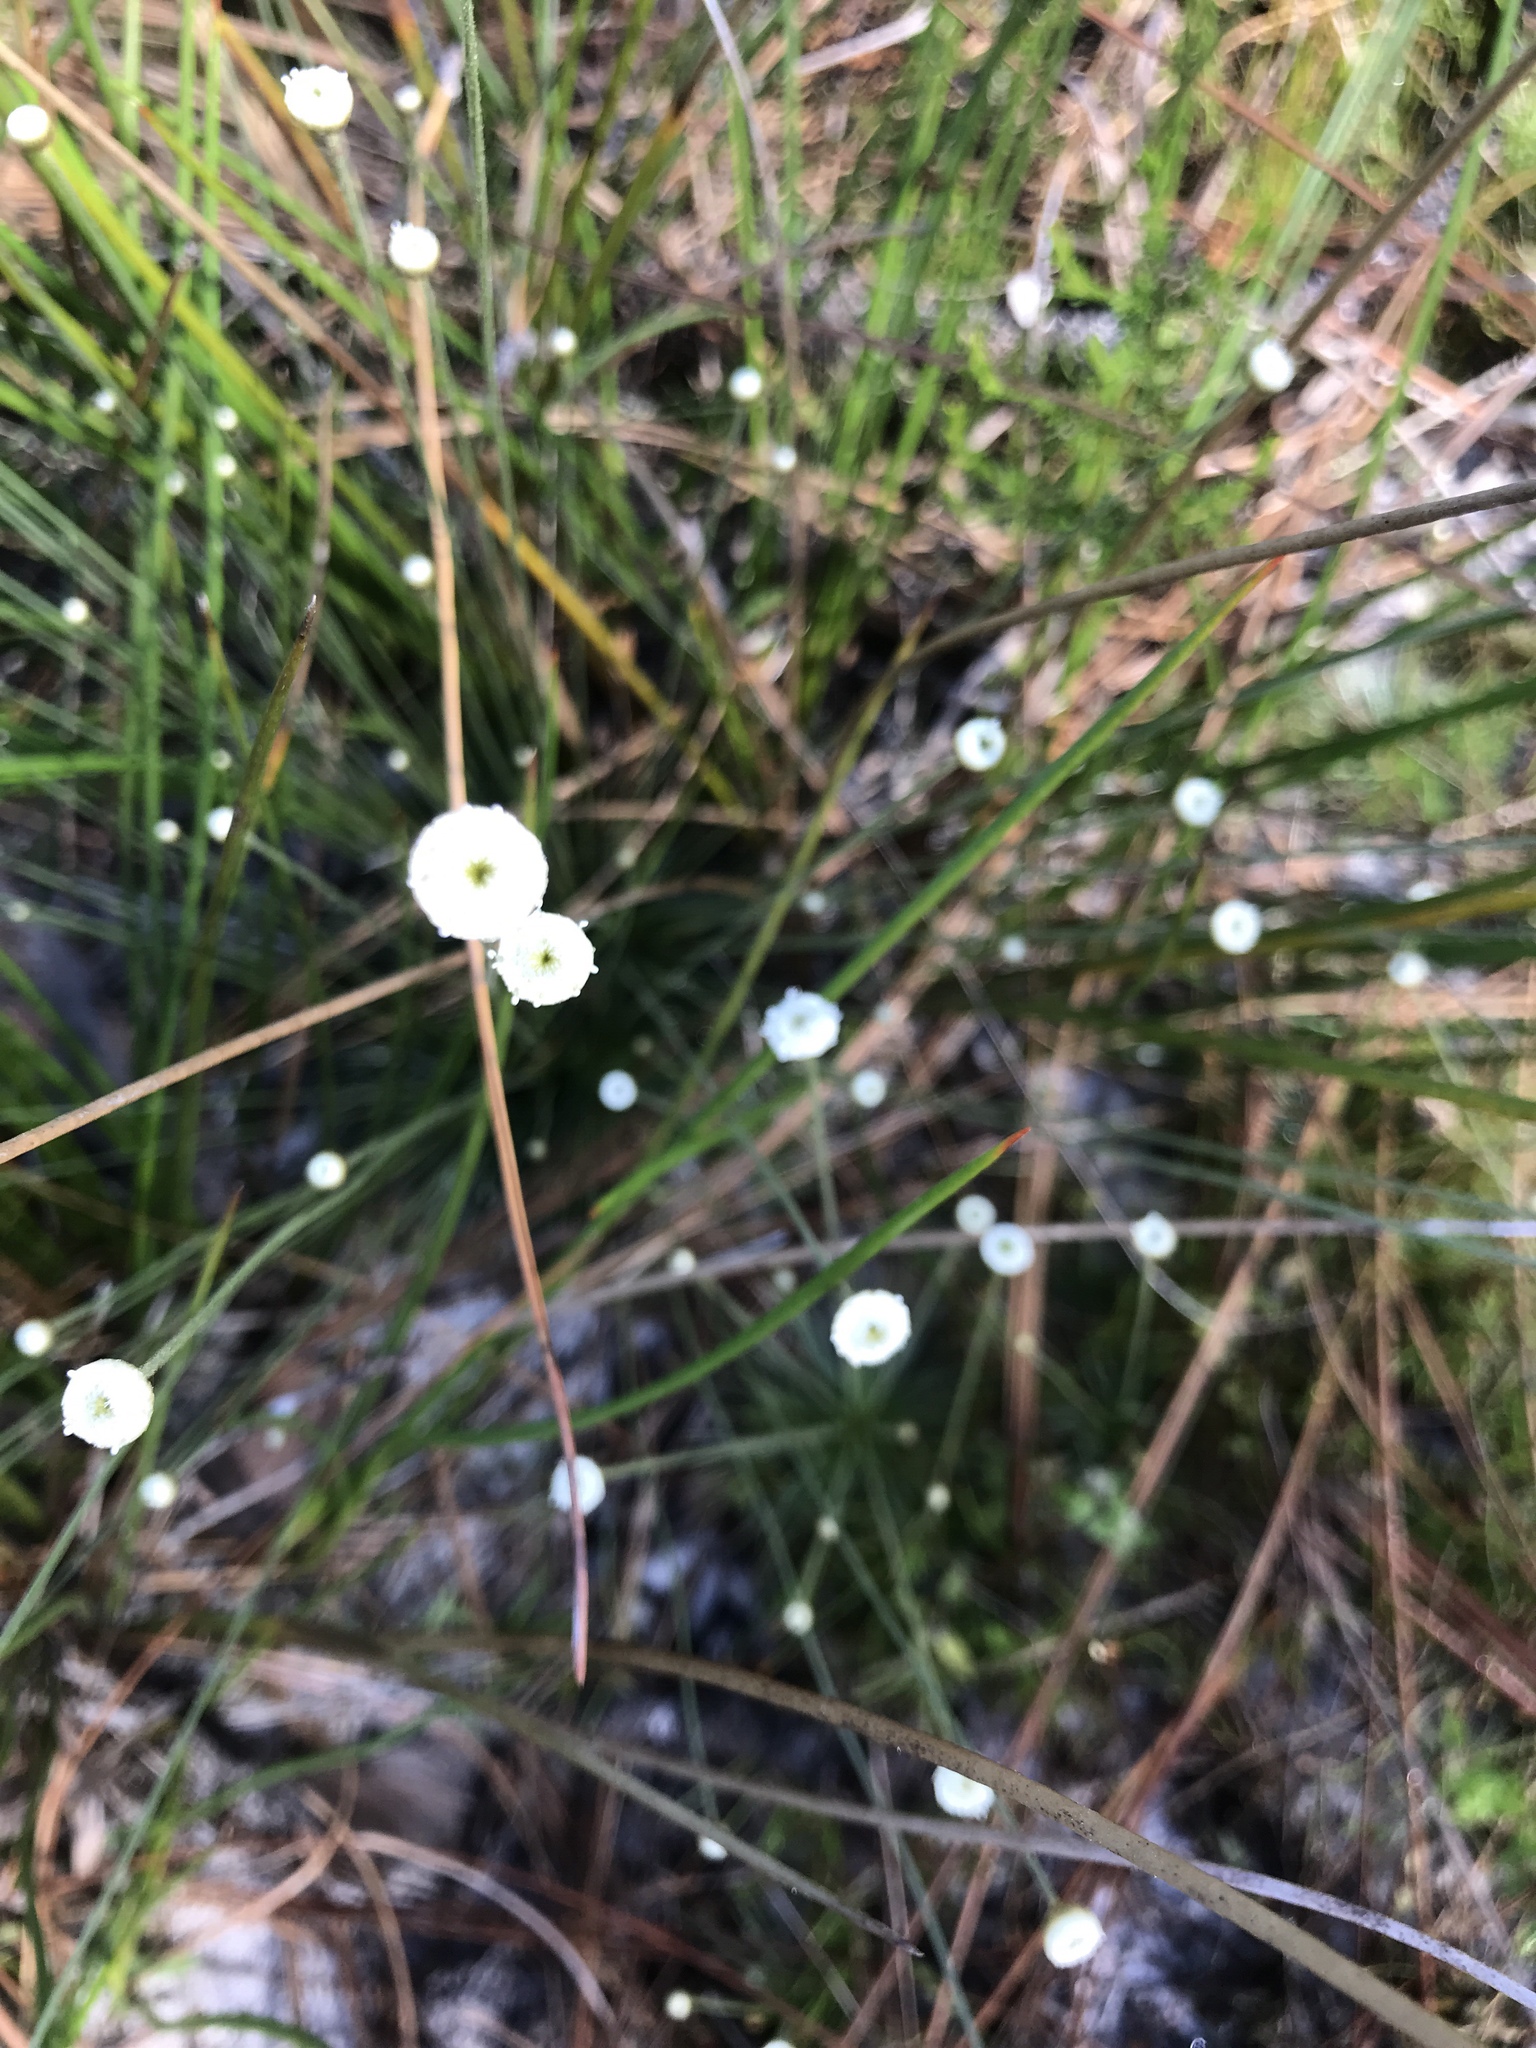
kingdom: Plantae
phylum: Tracheophyta
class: Liliopsida
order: Poales
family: Eriocaulaceae
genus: Syngonanthus
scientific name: Syngonanthus flavidulus
